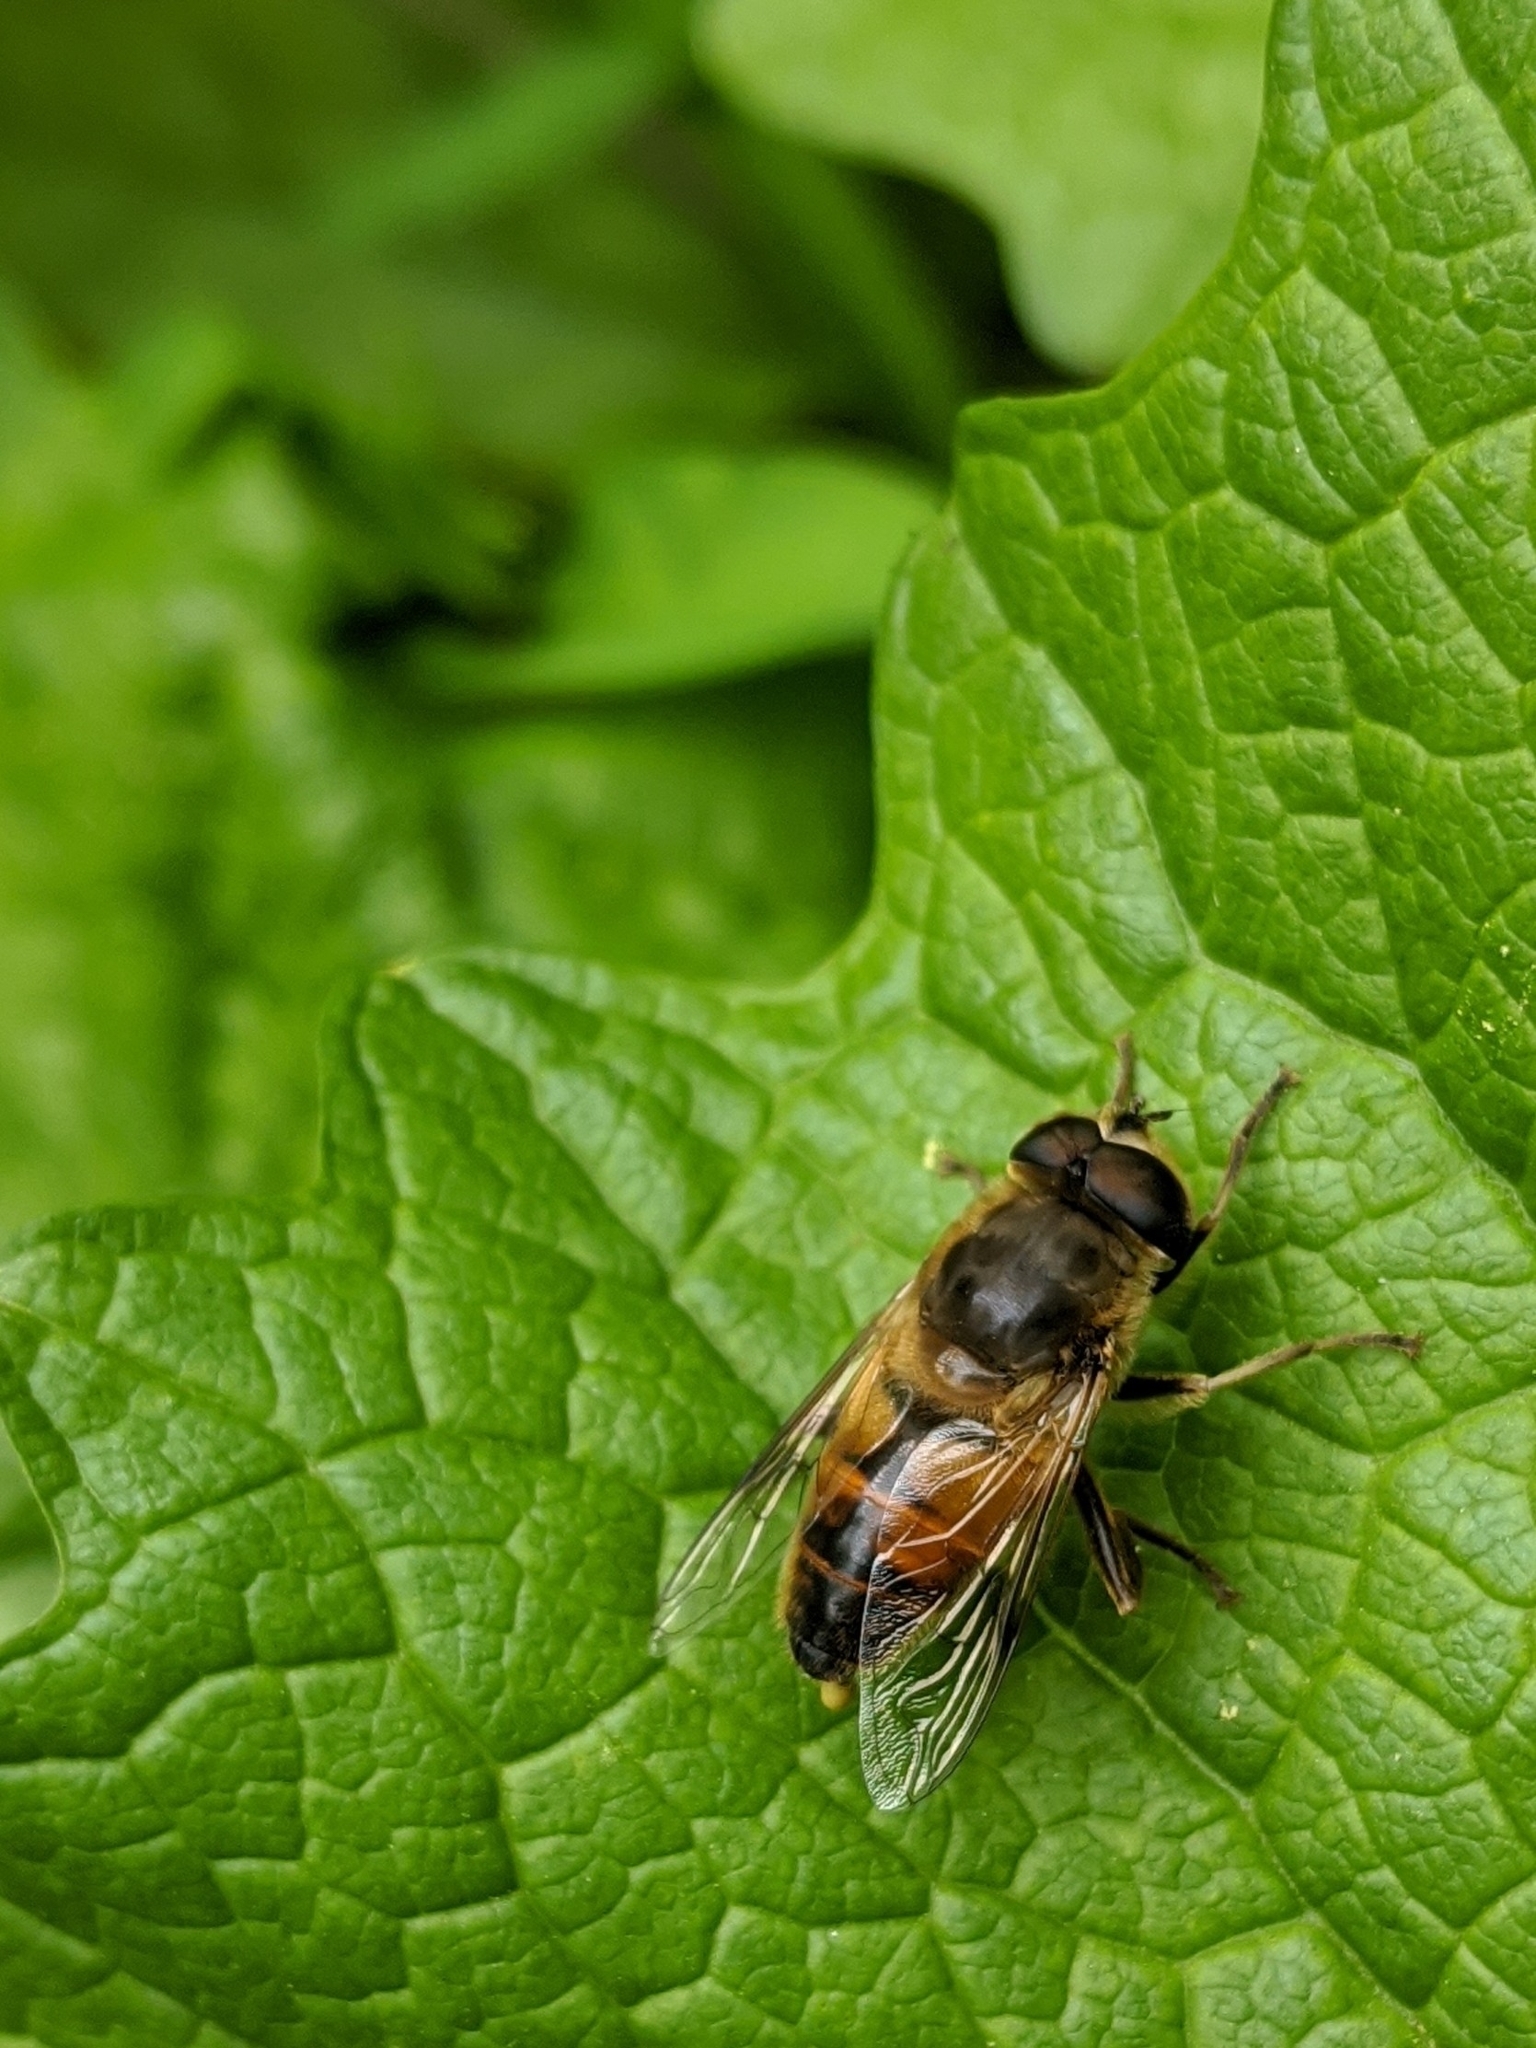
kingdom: Animalia
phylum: Arthropoda
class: Insecta
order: Diptera
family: Syrphidae
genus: Eristalis
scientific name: Eristalis tenax
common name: Drone fly
